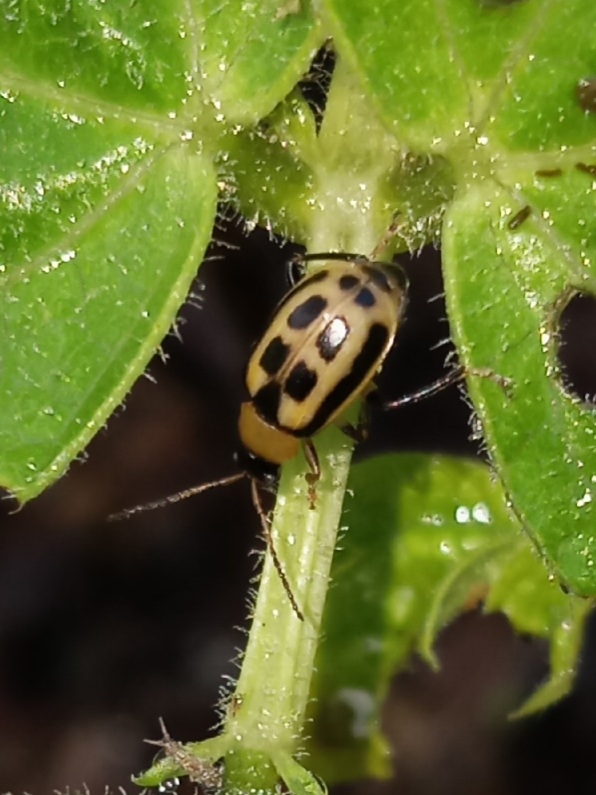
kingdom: Animalia
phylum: Arthropoda
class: Insecta
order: Coleoptera
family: Chrysomelidae
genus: Cerotoma
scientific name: Cerotoma trifurcata
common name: Bean leaf beetle
